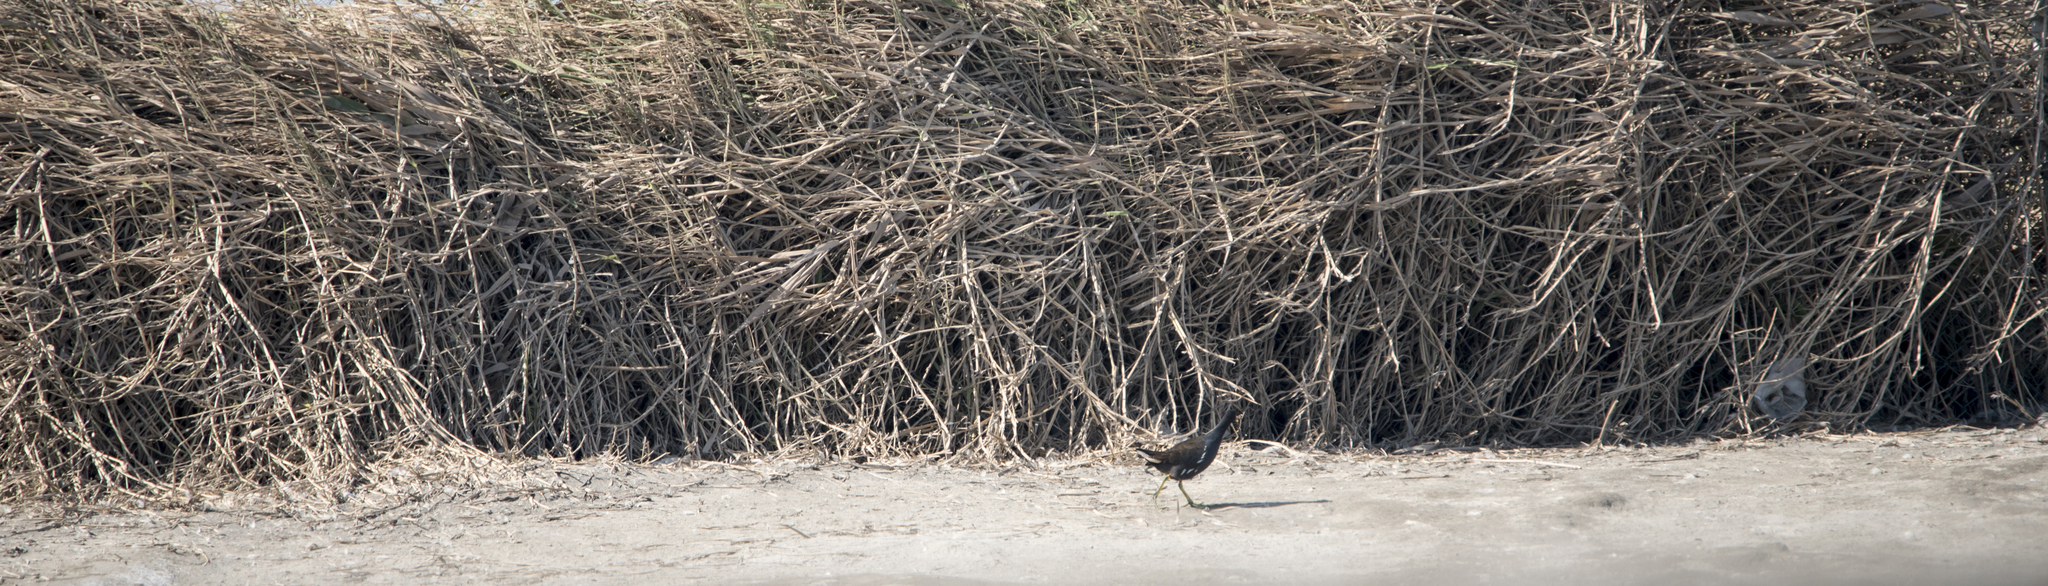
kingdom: Animalia
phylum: Chordata
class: Aves
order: Gruiformes
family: Rallidae
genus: Gallinula
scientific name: Gallinula chloropus
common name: Common moorhen
